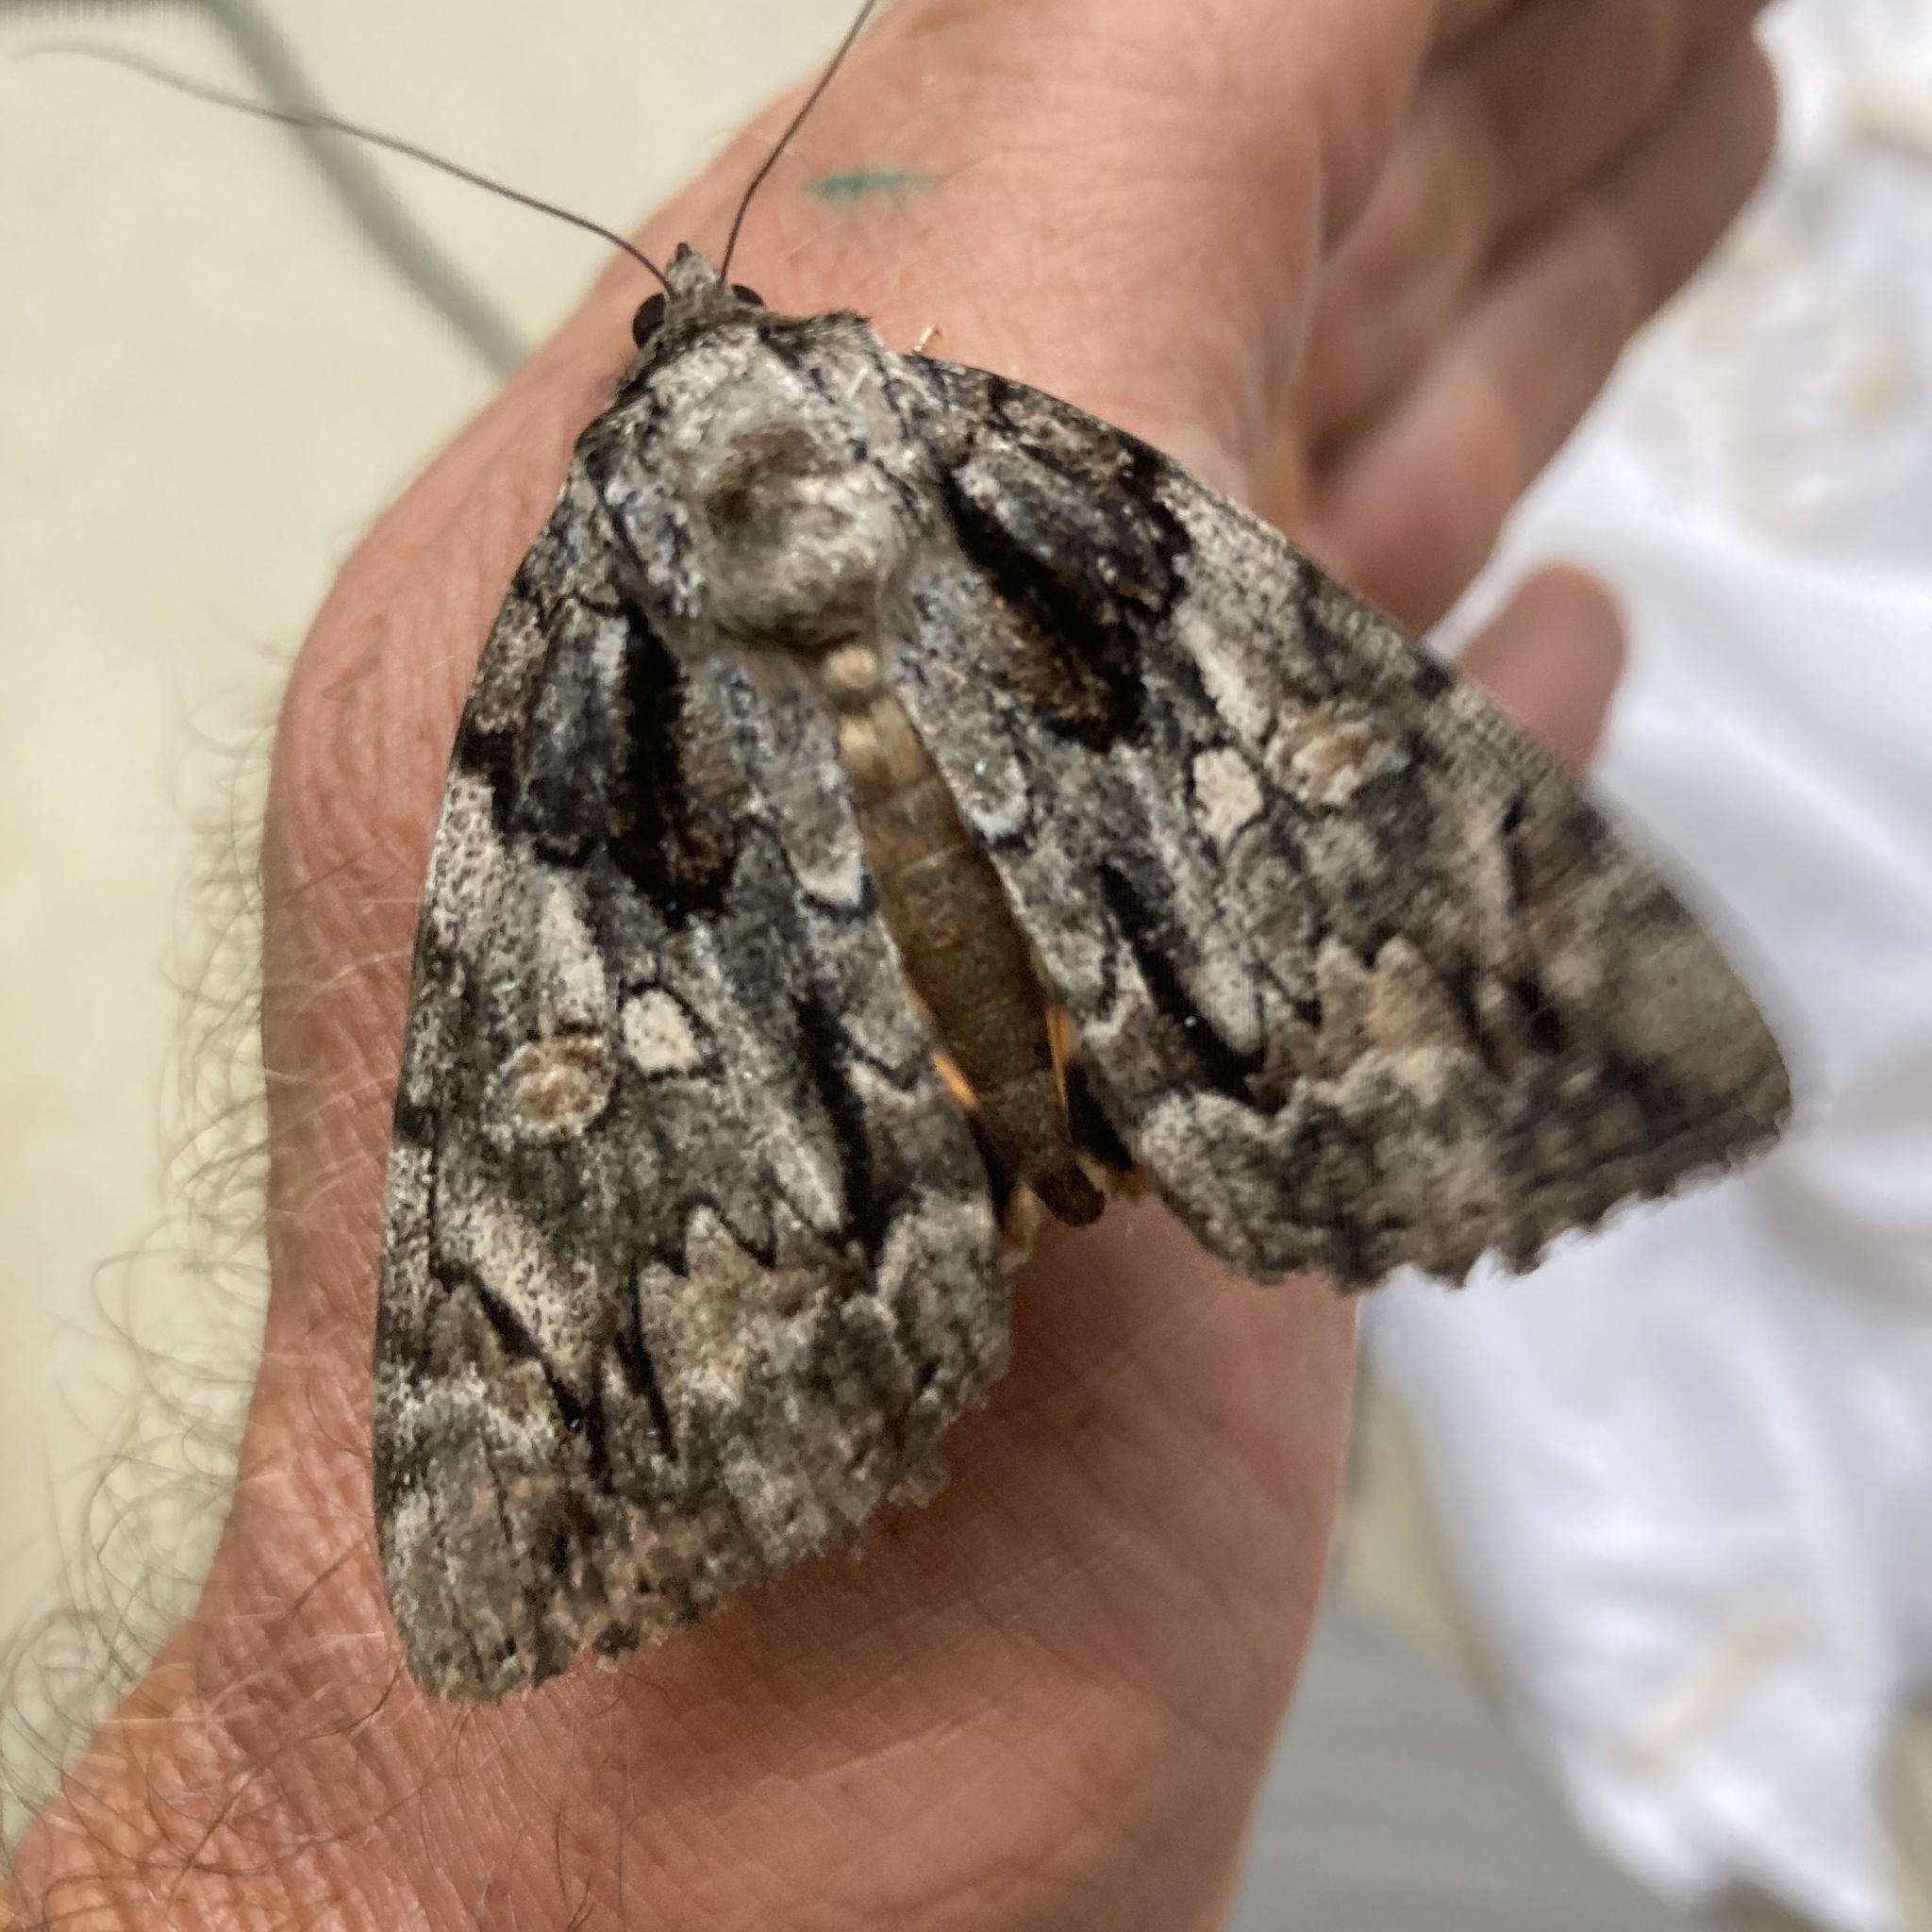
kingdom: Animalia
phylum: Arthropoda
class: Insecta
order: Lepidoptera
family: Erebidae
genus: Catocala
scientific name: Catocala neogama
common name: Bride underwing
